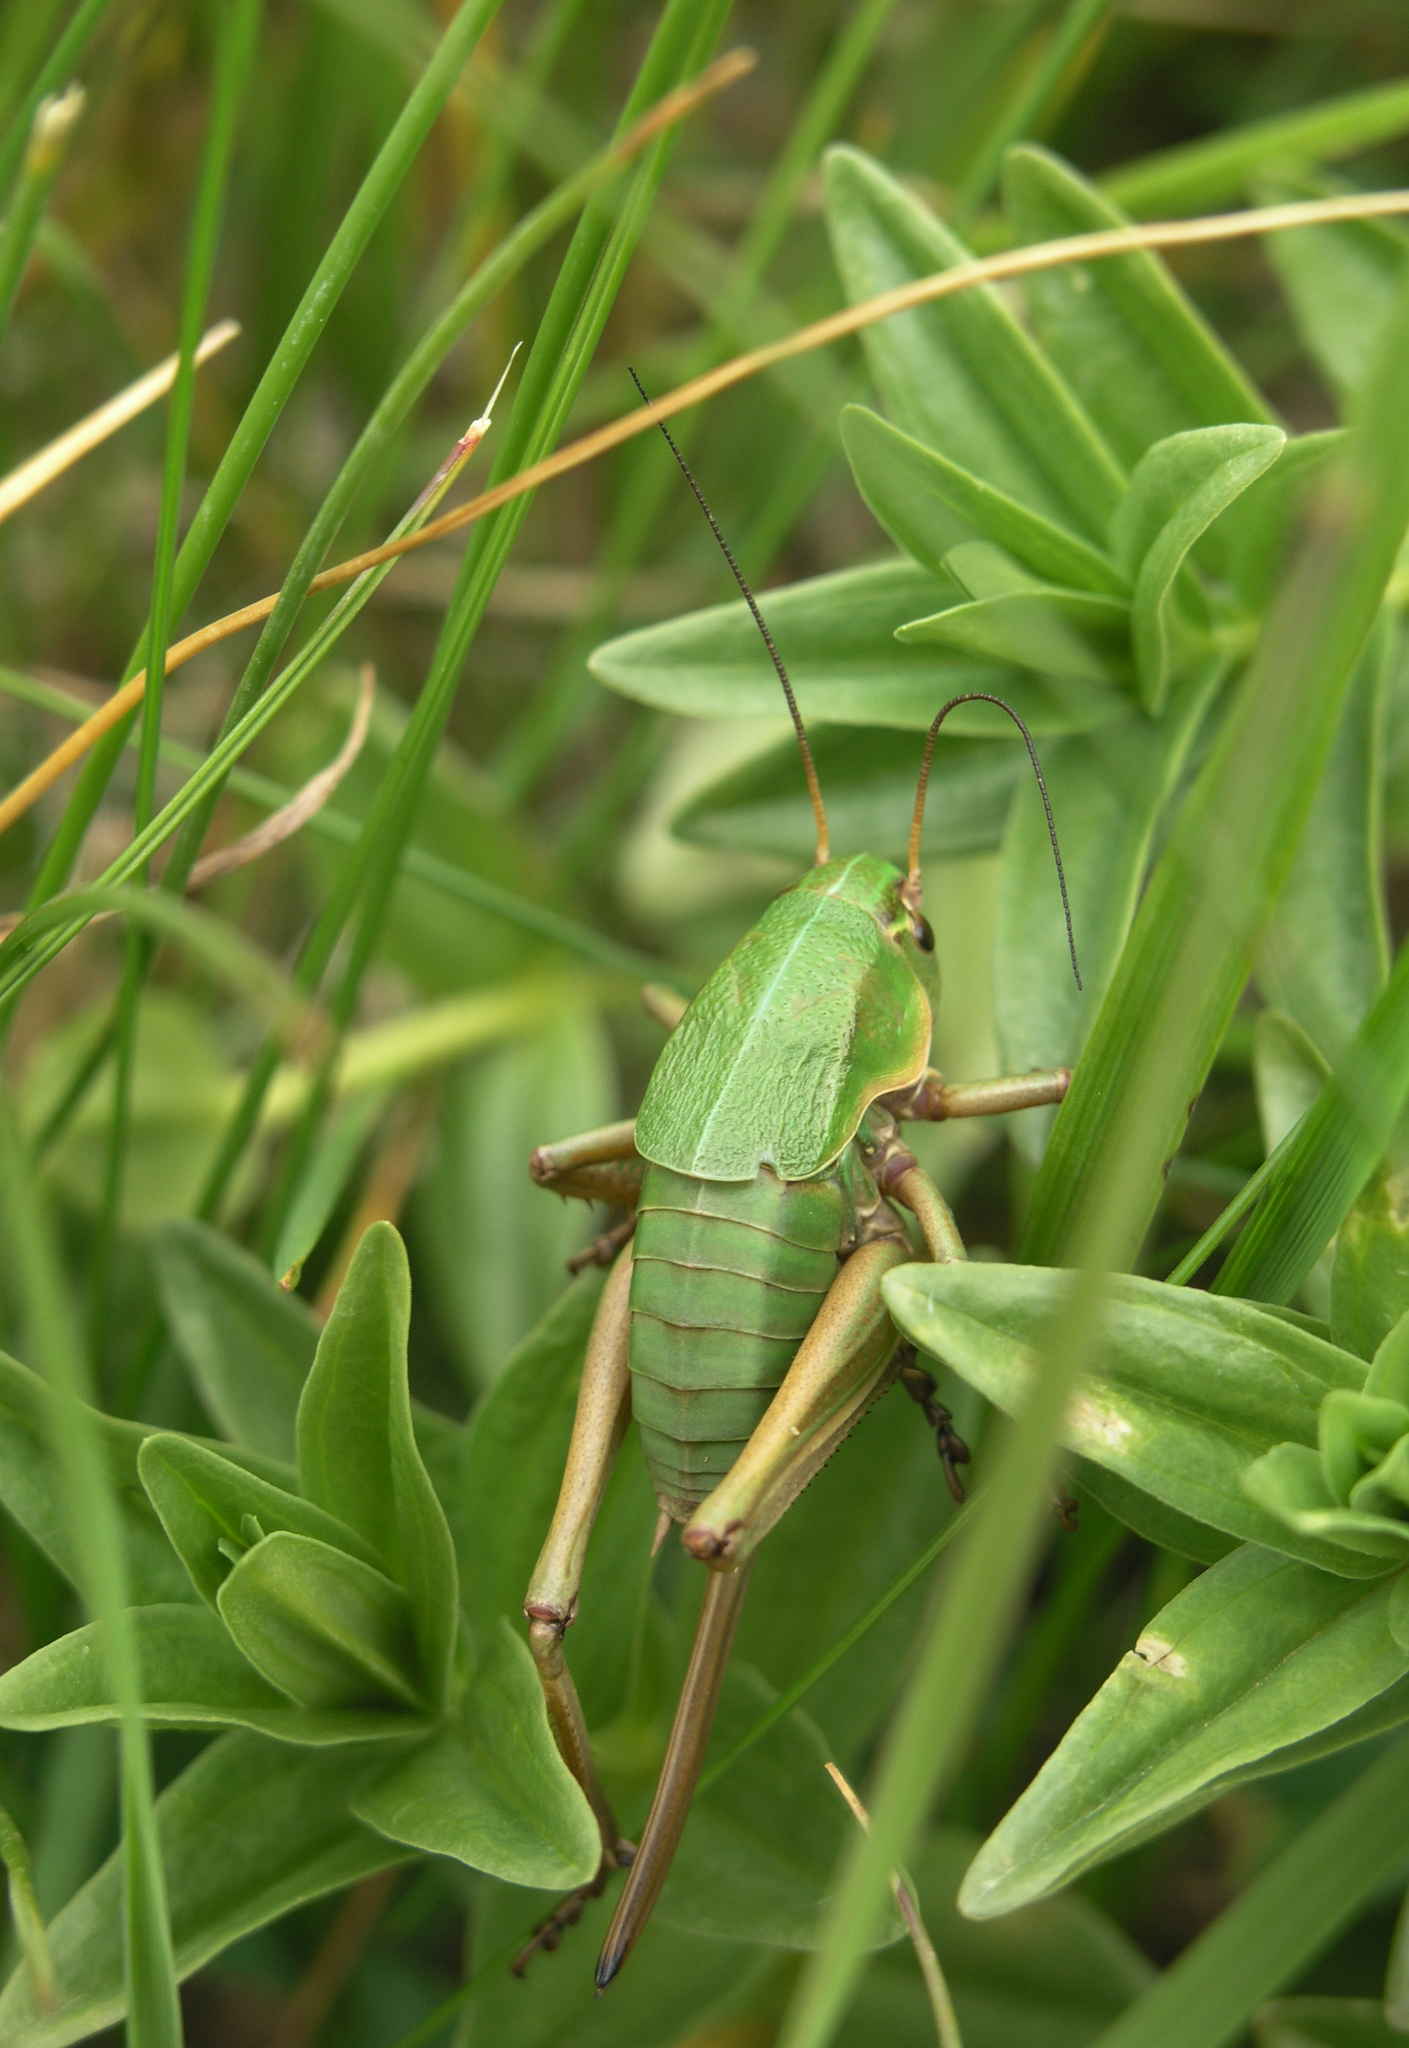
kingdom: Animalia
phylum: Arthropoda
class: Insecta
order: Orthoptera
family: Tettigoniidae
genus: Psorodonotus
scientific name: Psorodonotus venosus
